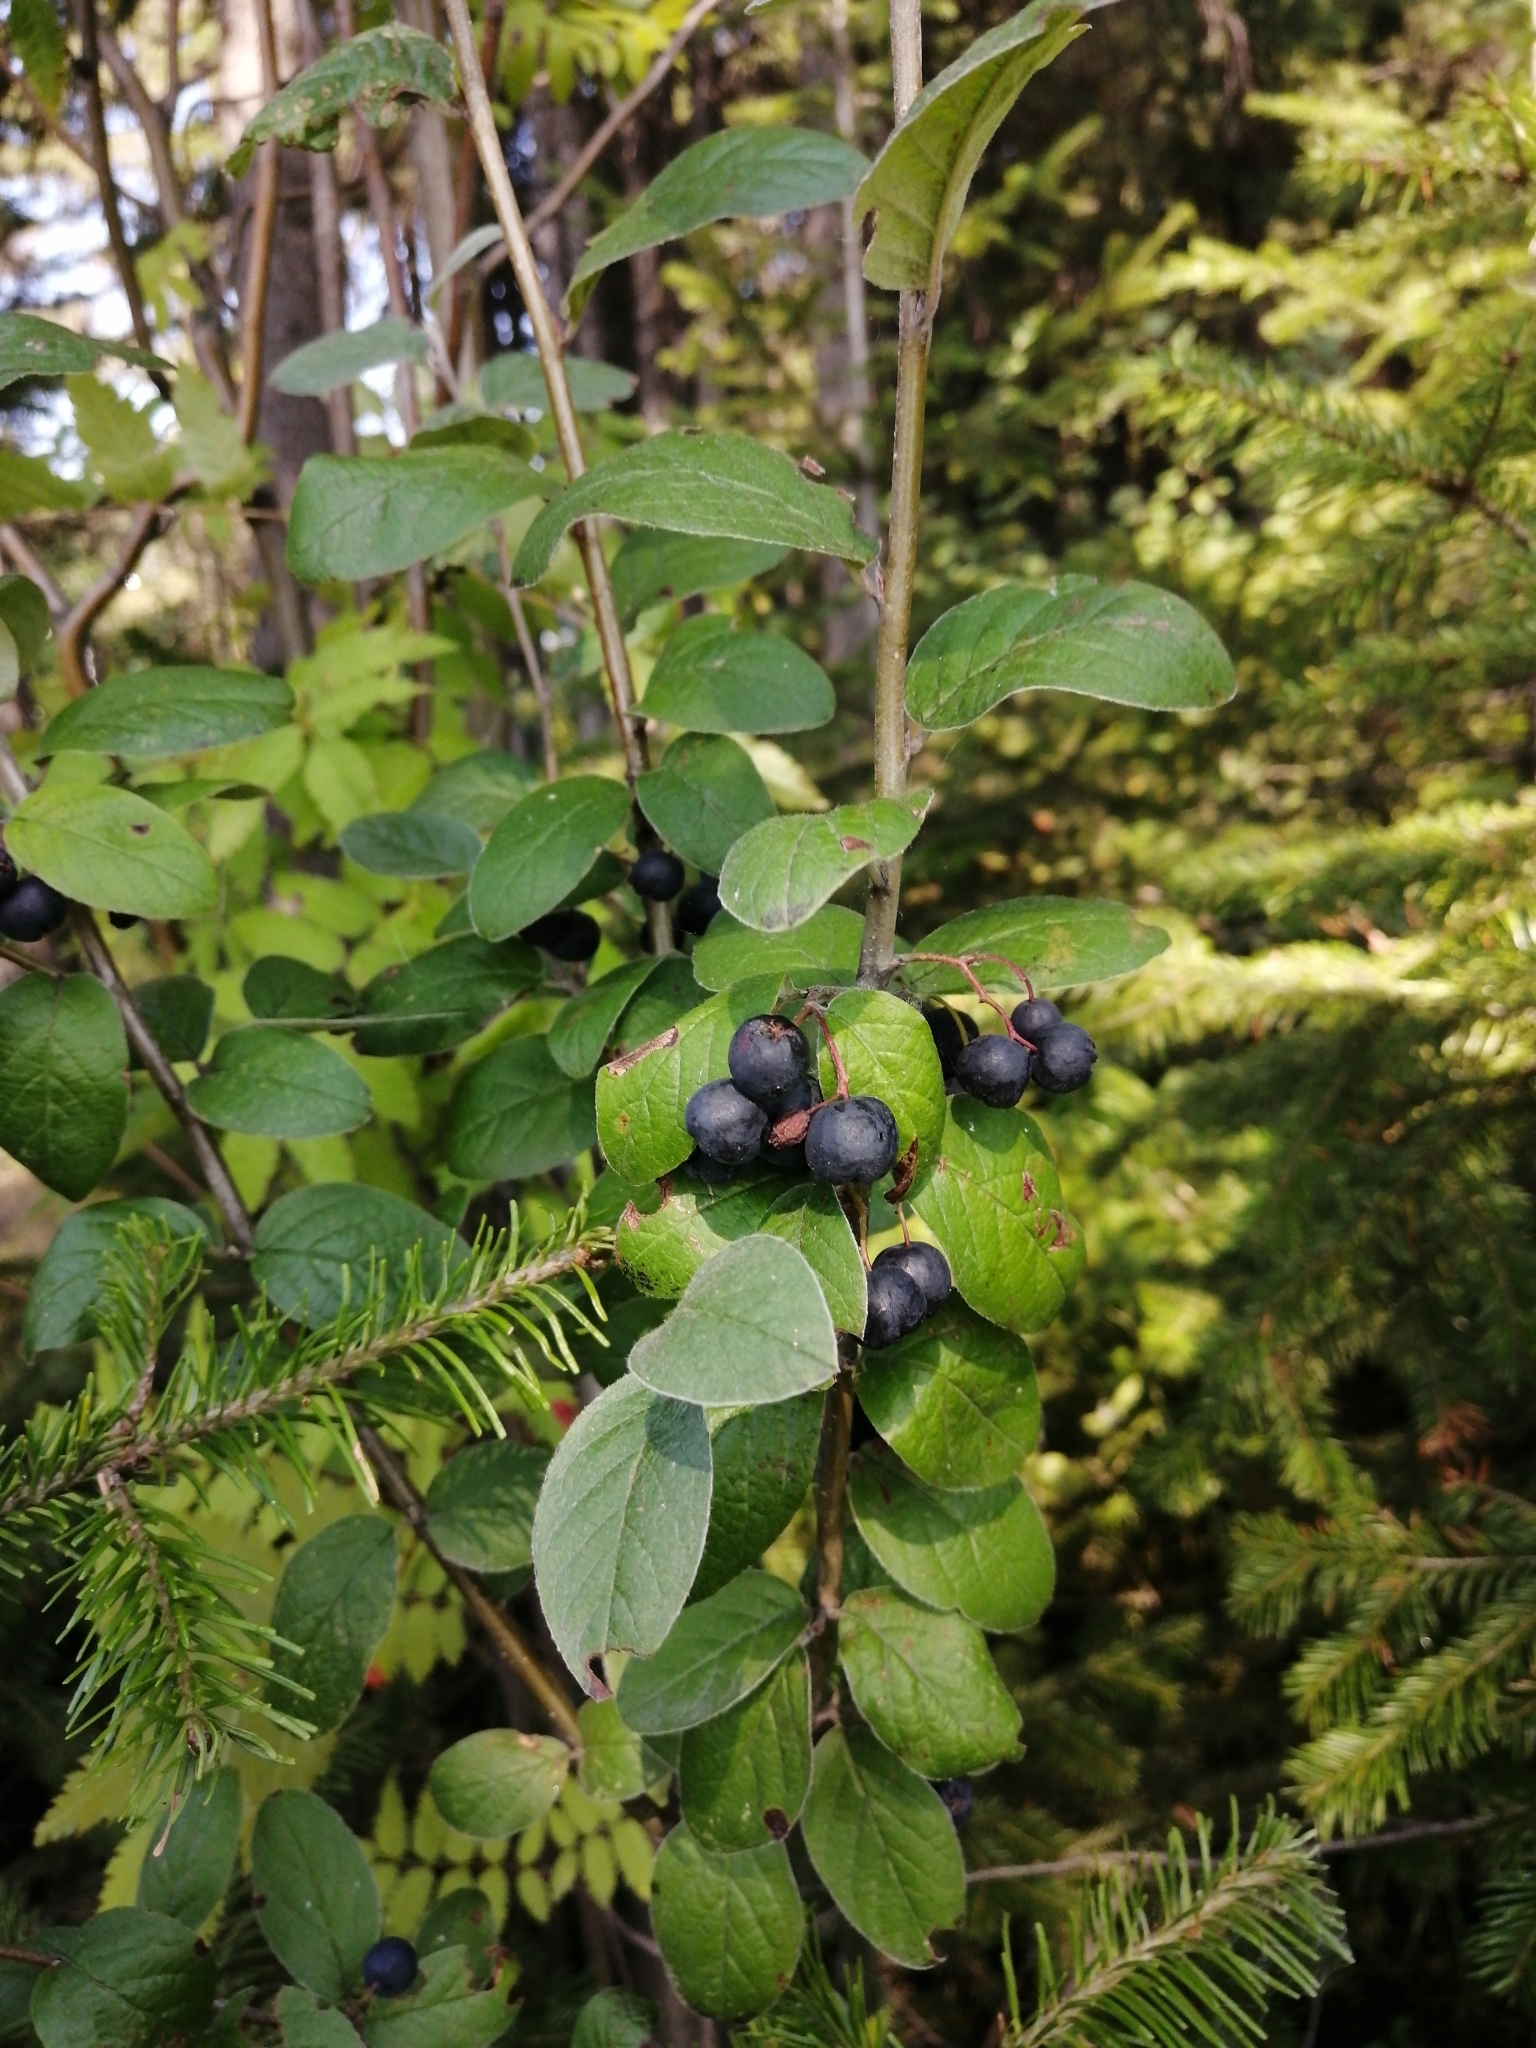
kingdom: Plantae
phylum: Tracheophyta
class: Magnoliopsida
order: Rosales
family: Rosaceae
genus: Cotoneaster
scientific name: Cotoneaster melanocarpus
